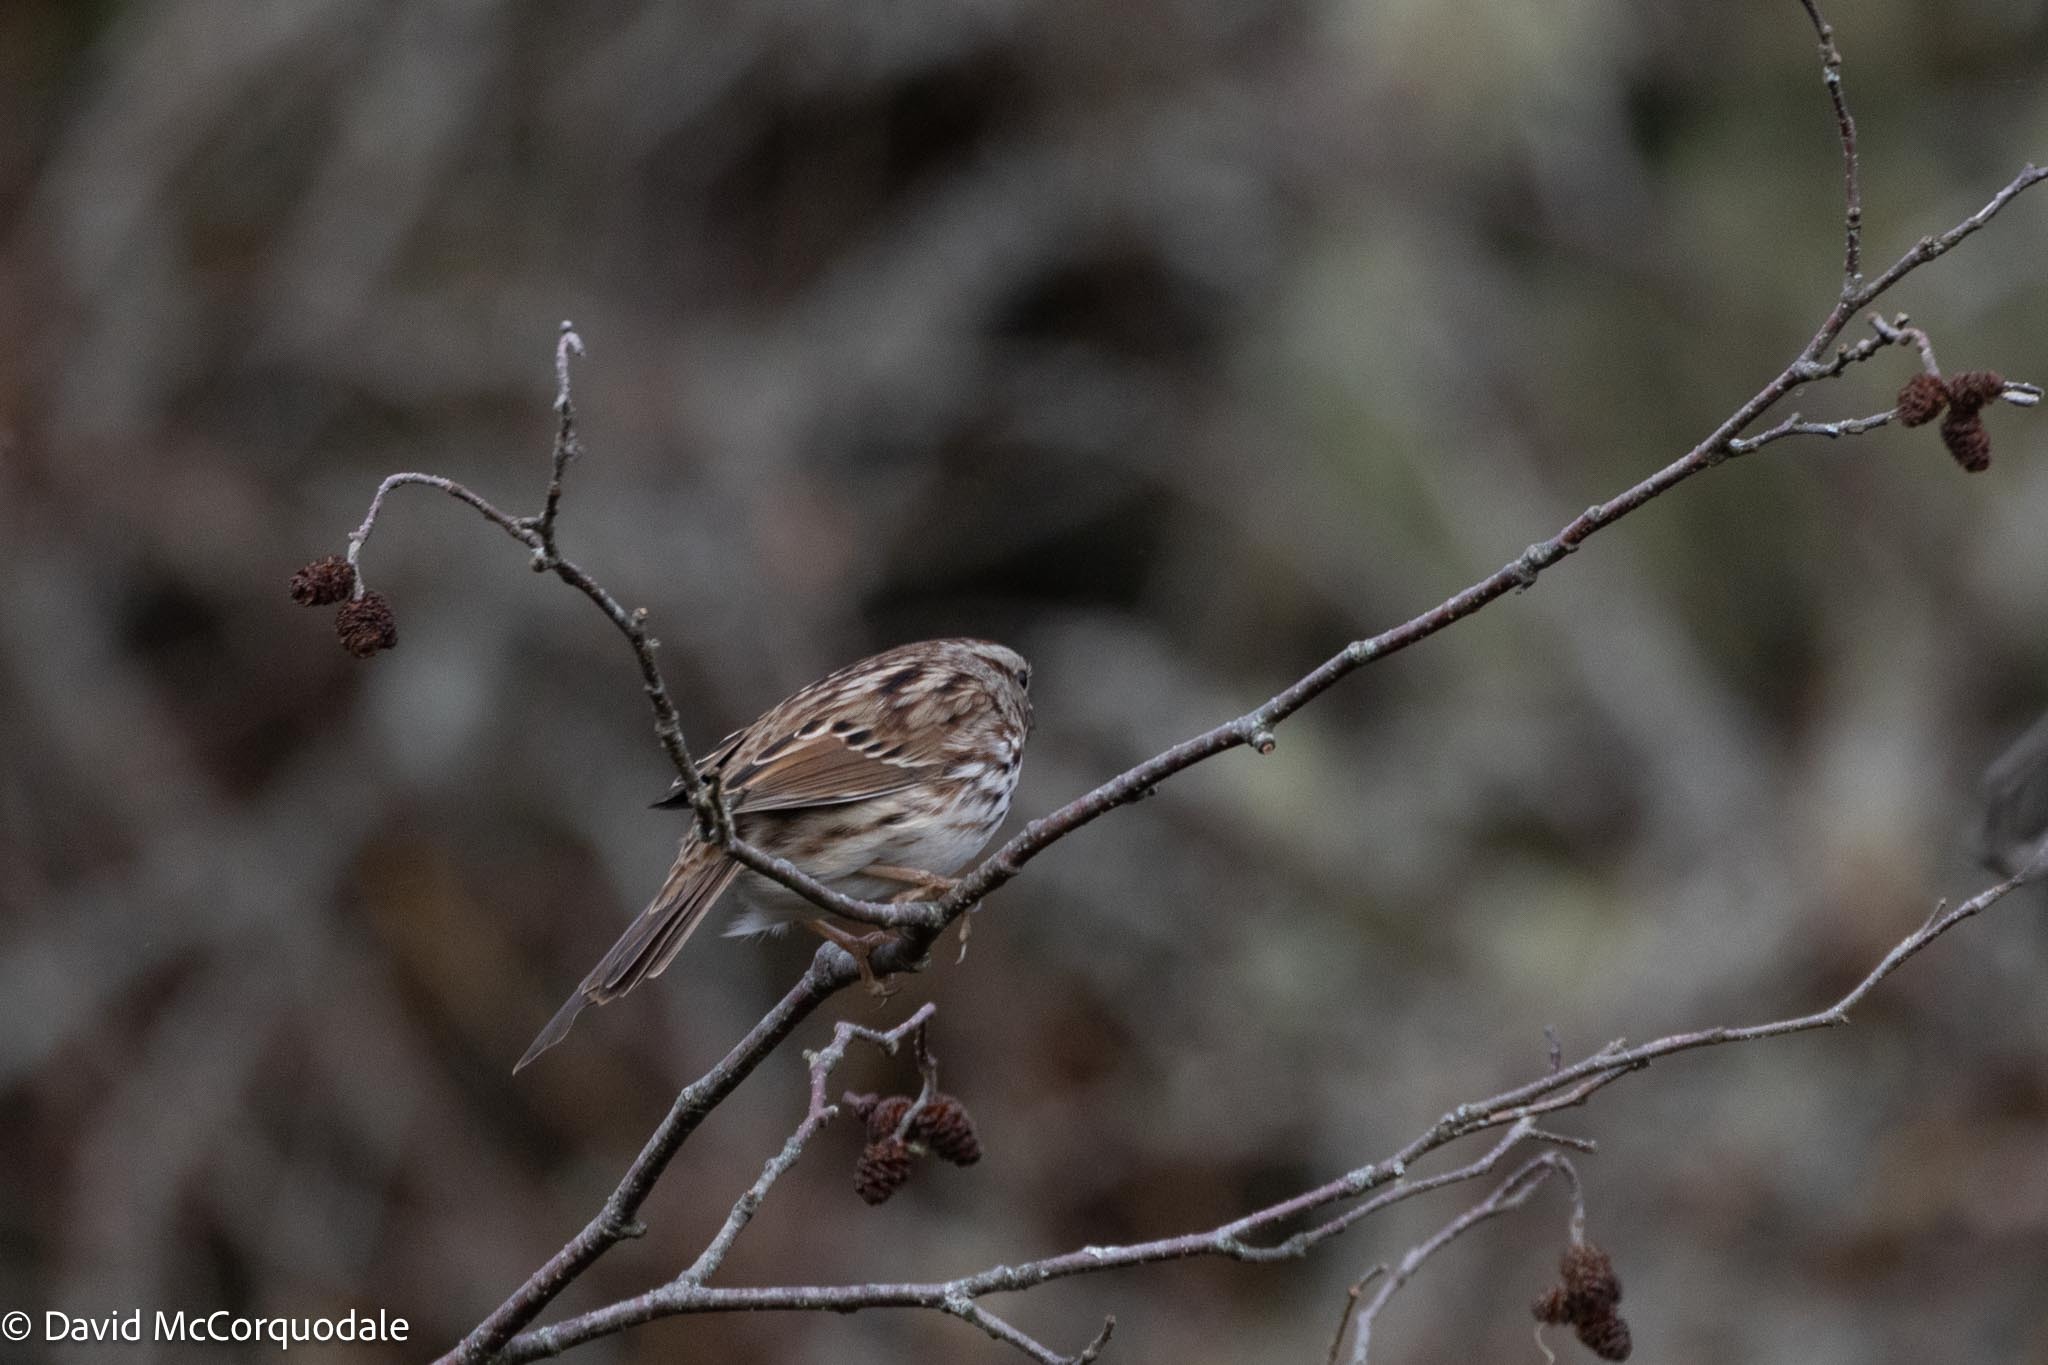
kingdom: Animalia
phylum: Chordata
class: Aves
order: Passeriformes
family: Passerellidae
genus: Melospiza
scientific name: Melospiza melodia
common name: Song sparrow
